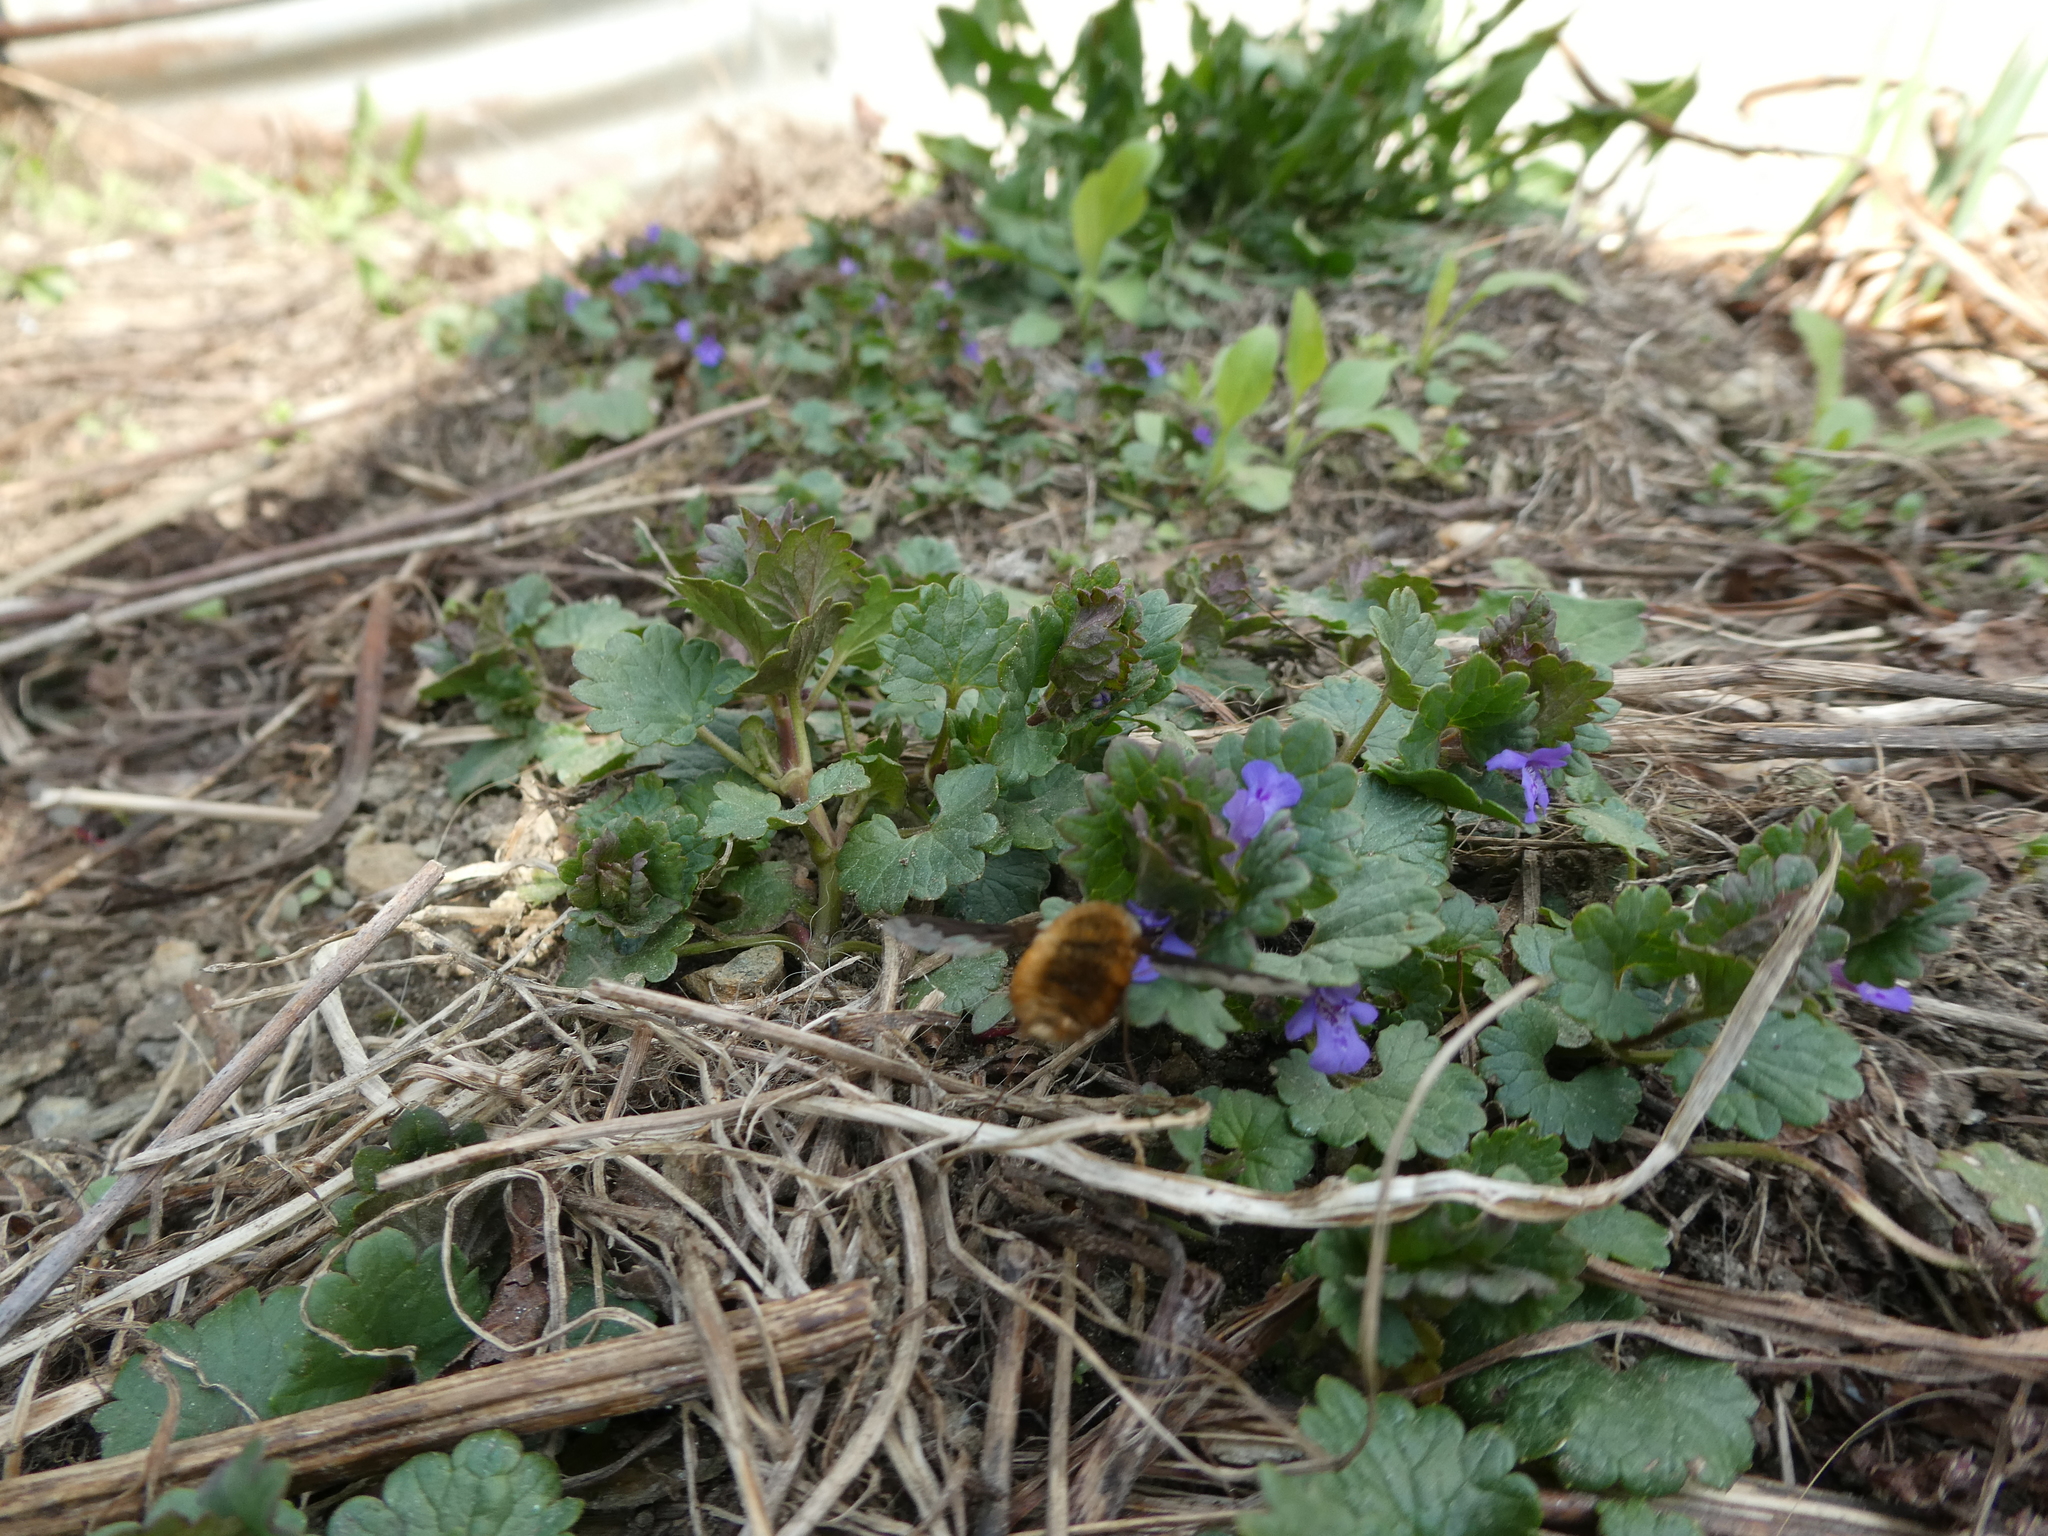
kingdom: Animalia
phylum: Arthropoda
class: Insecta
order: Diptera
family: Bombyliidae
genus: Bombylius
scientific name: Bombylius major
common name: Bee fly
